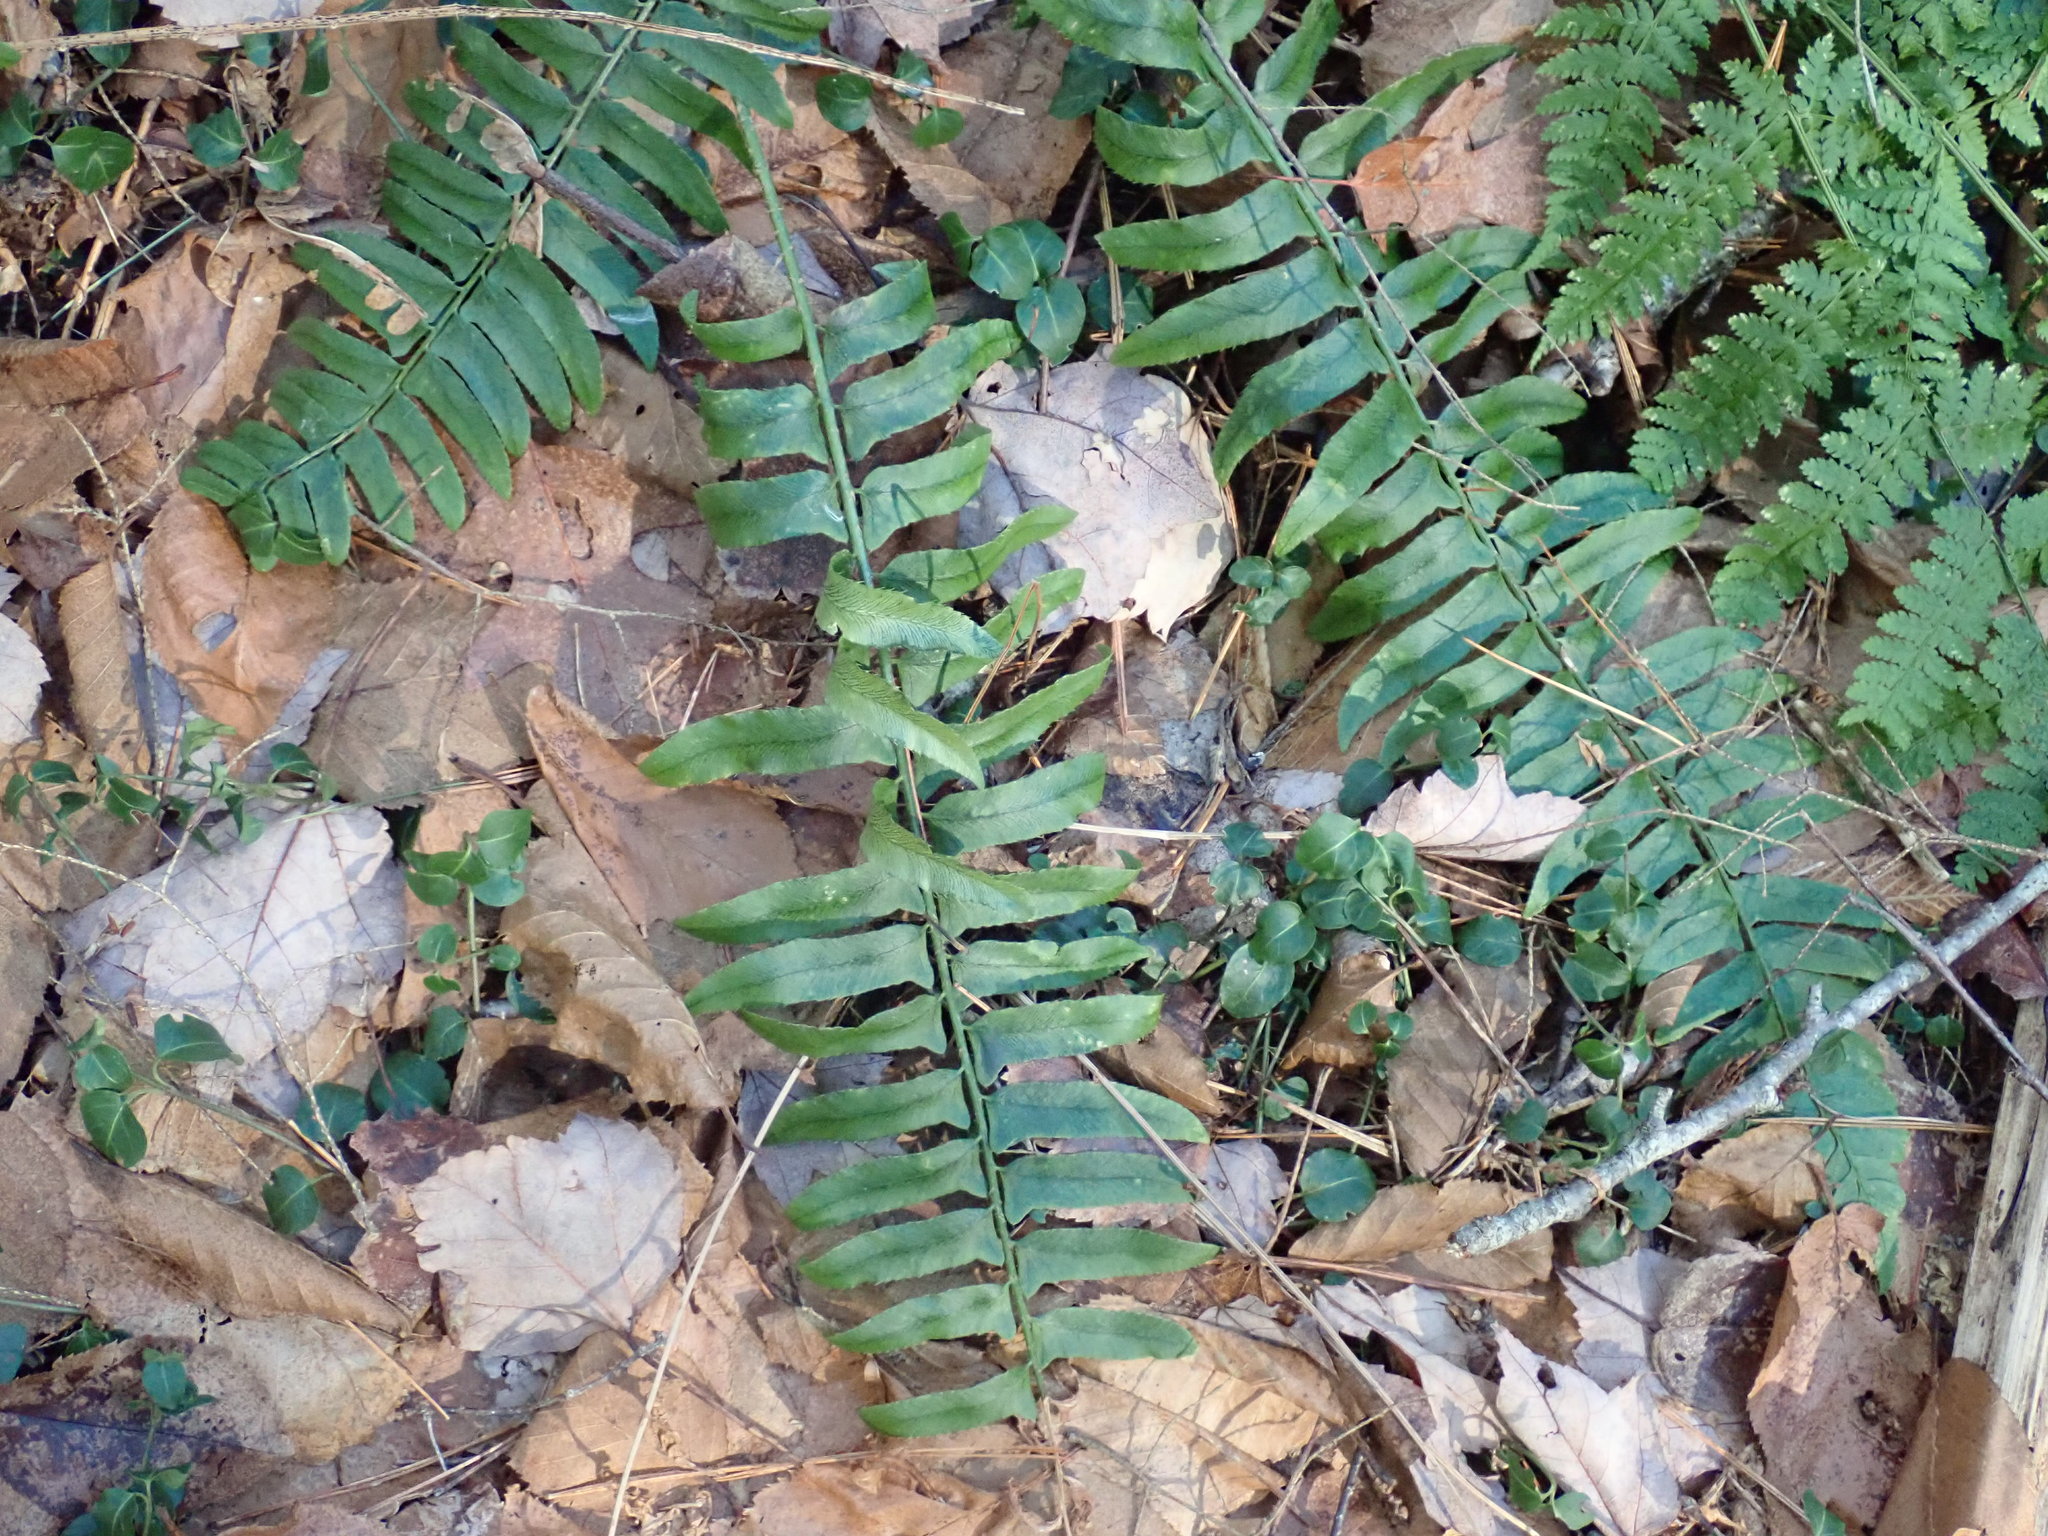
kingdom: Plantae
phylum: Tracheophyta
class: Polypodiopsida
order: Polypodiales
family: Dryopteridaceae
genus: Polystichum
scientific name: Polystichum acrostichoides
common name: Christmas fern
